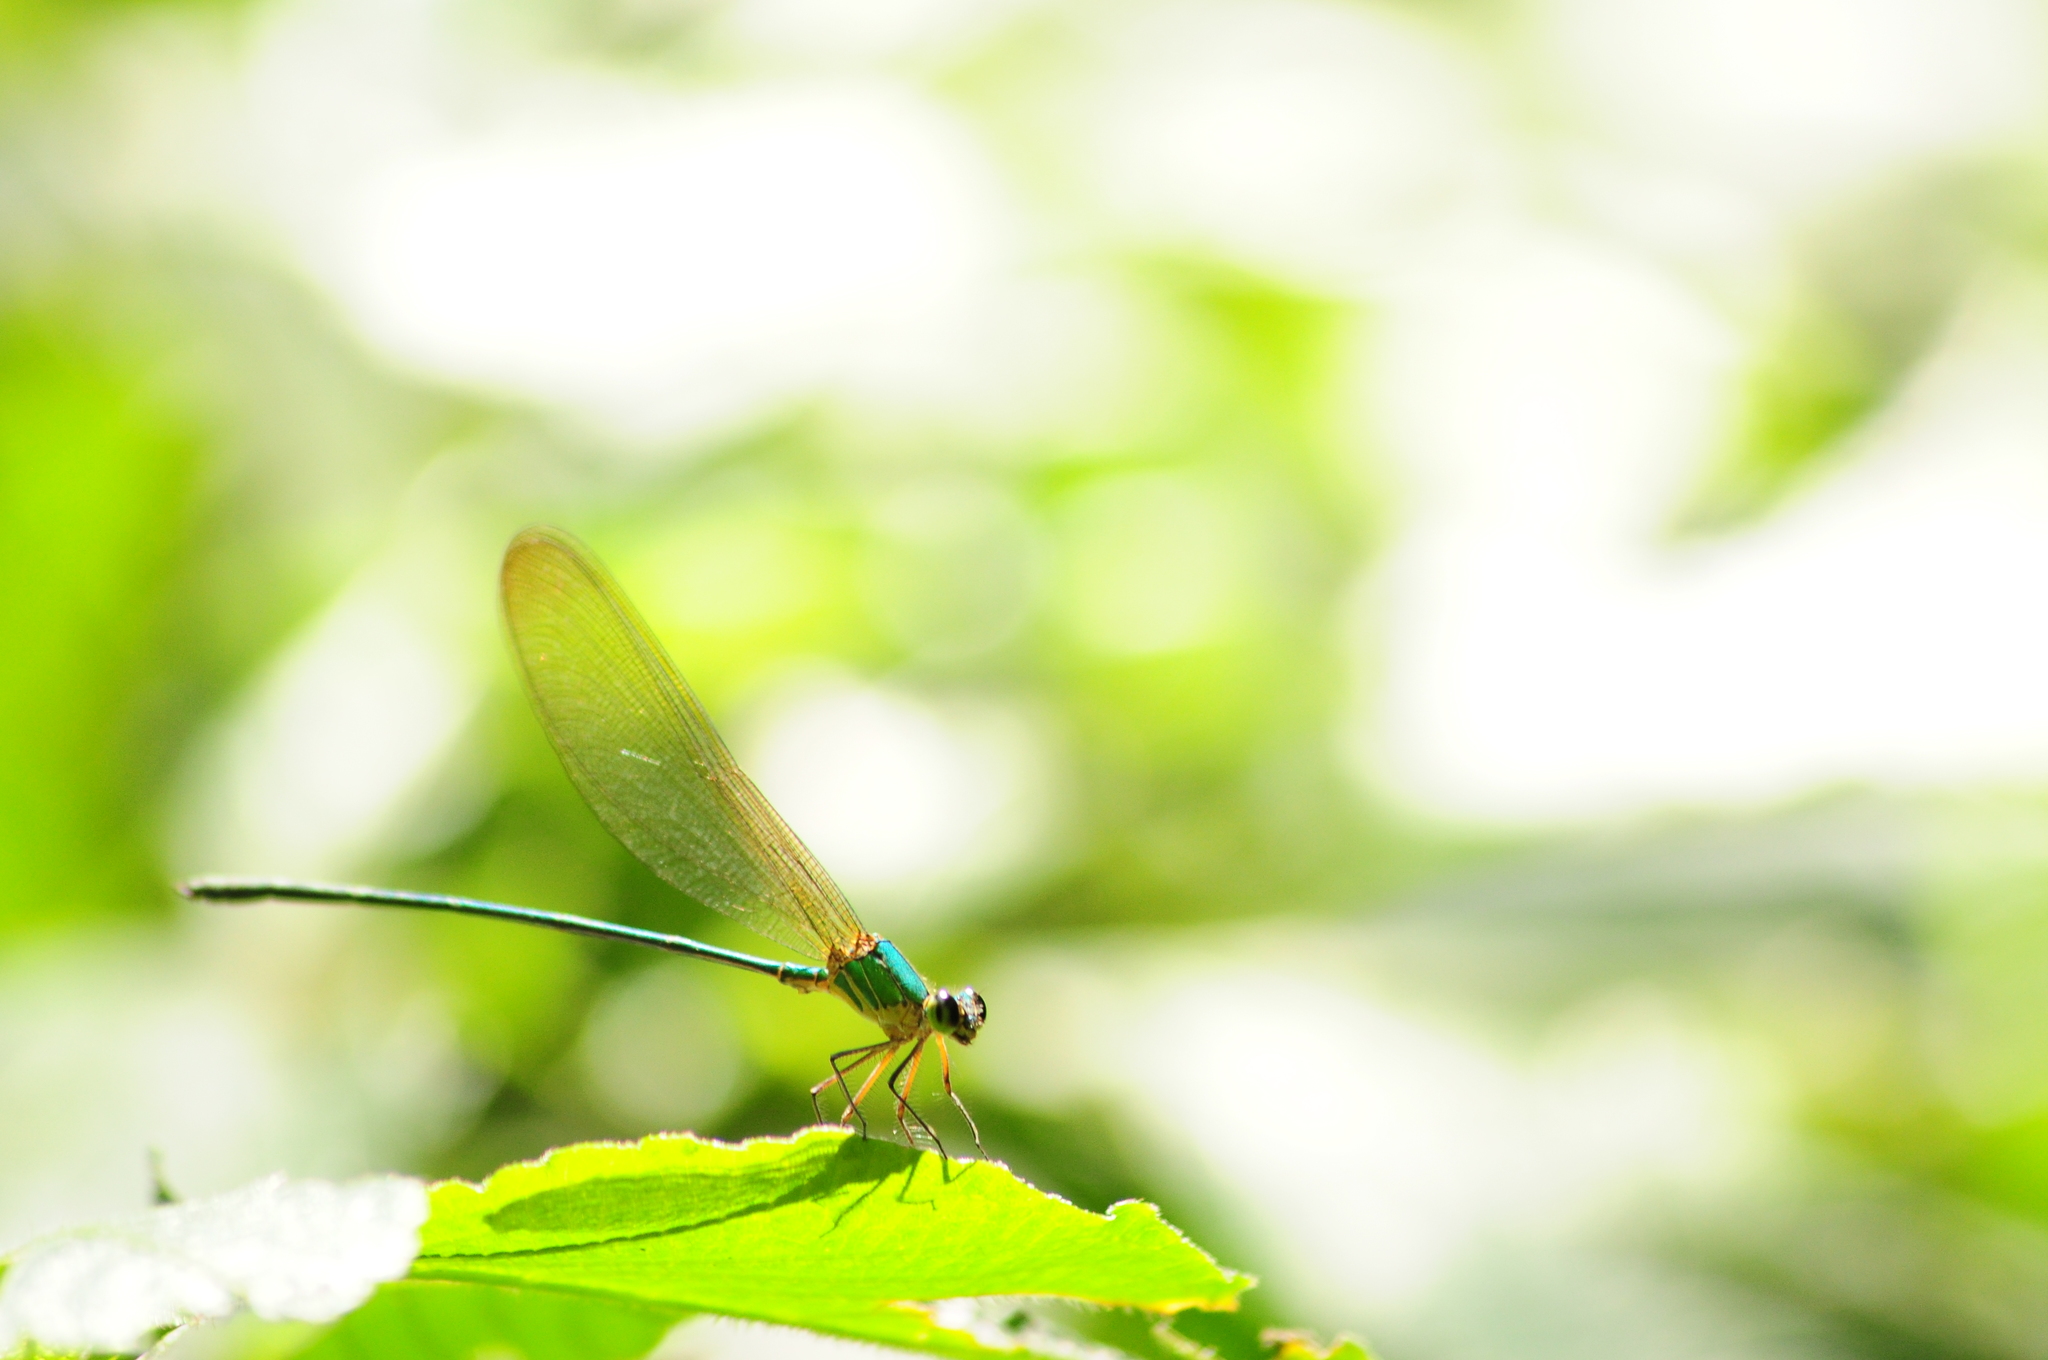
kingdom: Animalia
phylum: Arthropoda
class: Insecta
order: Odonata
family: Calopterygidae
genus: Vestalis
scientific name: Vestalis gracilis
